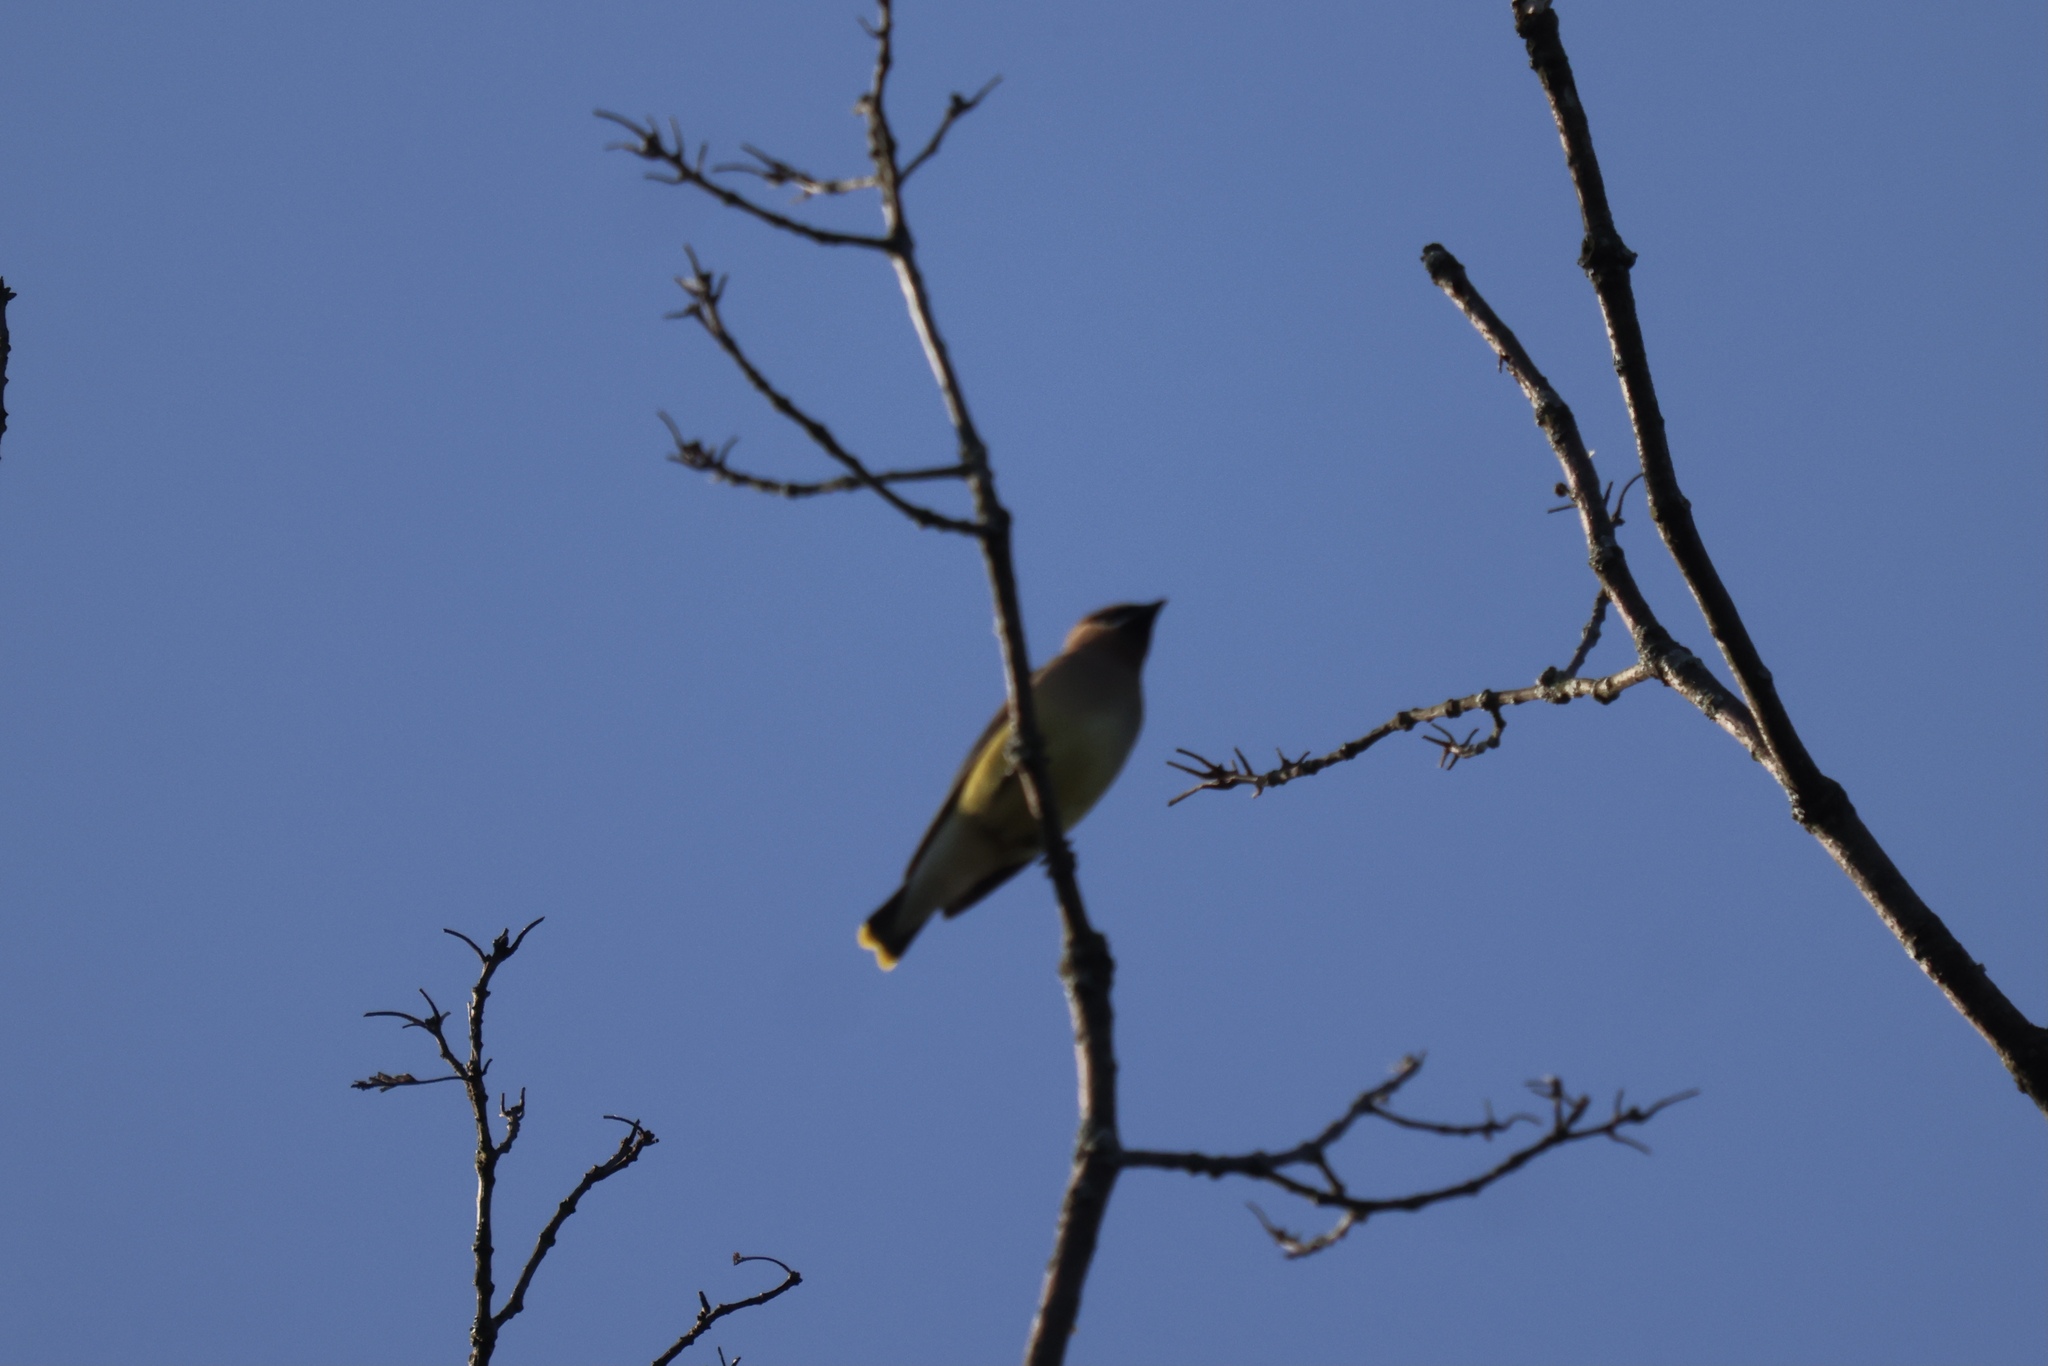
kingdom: Animalia
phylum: Chordata
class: Aves
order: Passeriformes
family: Bombycillidae
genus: Bombycilla
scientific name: Bombycilla cedrorum
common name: Cedar waxwing
